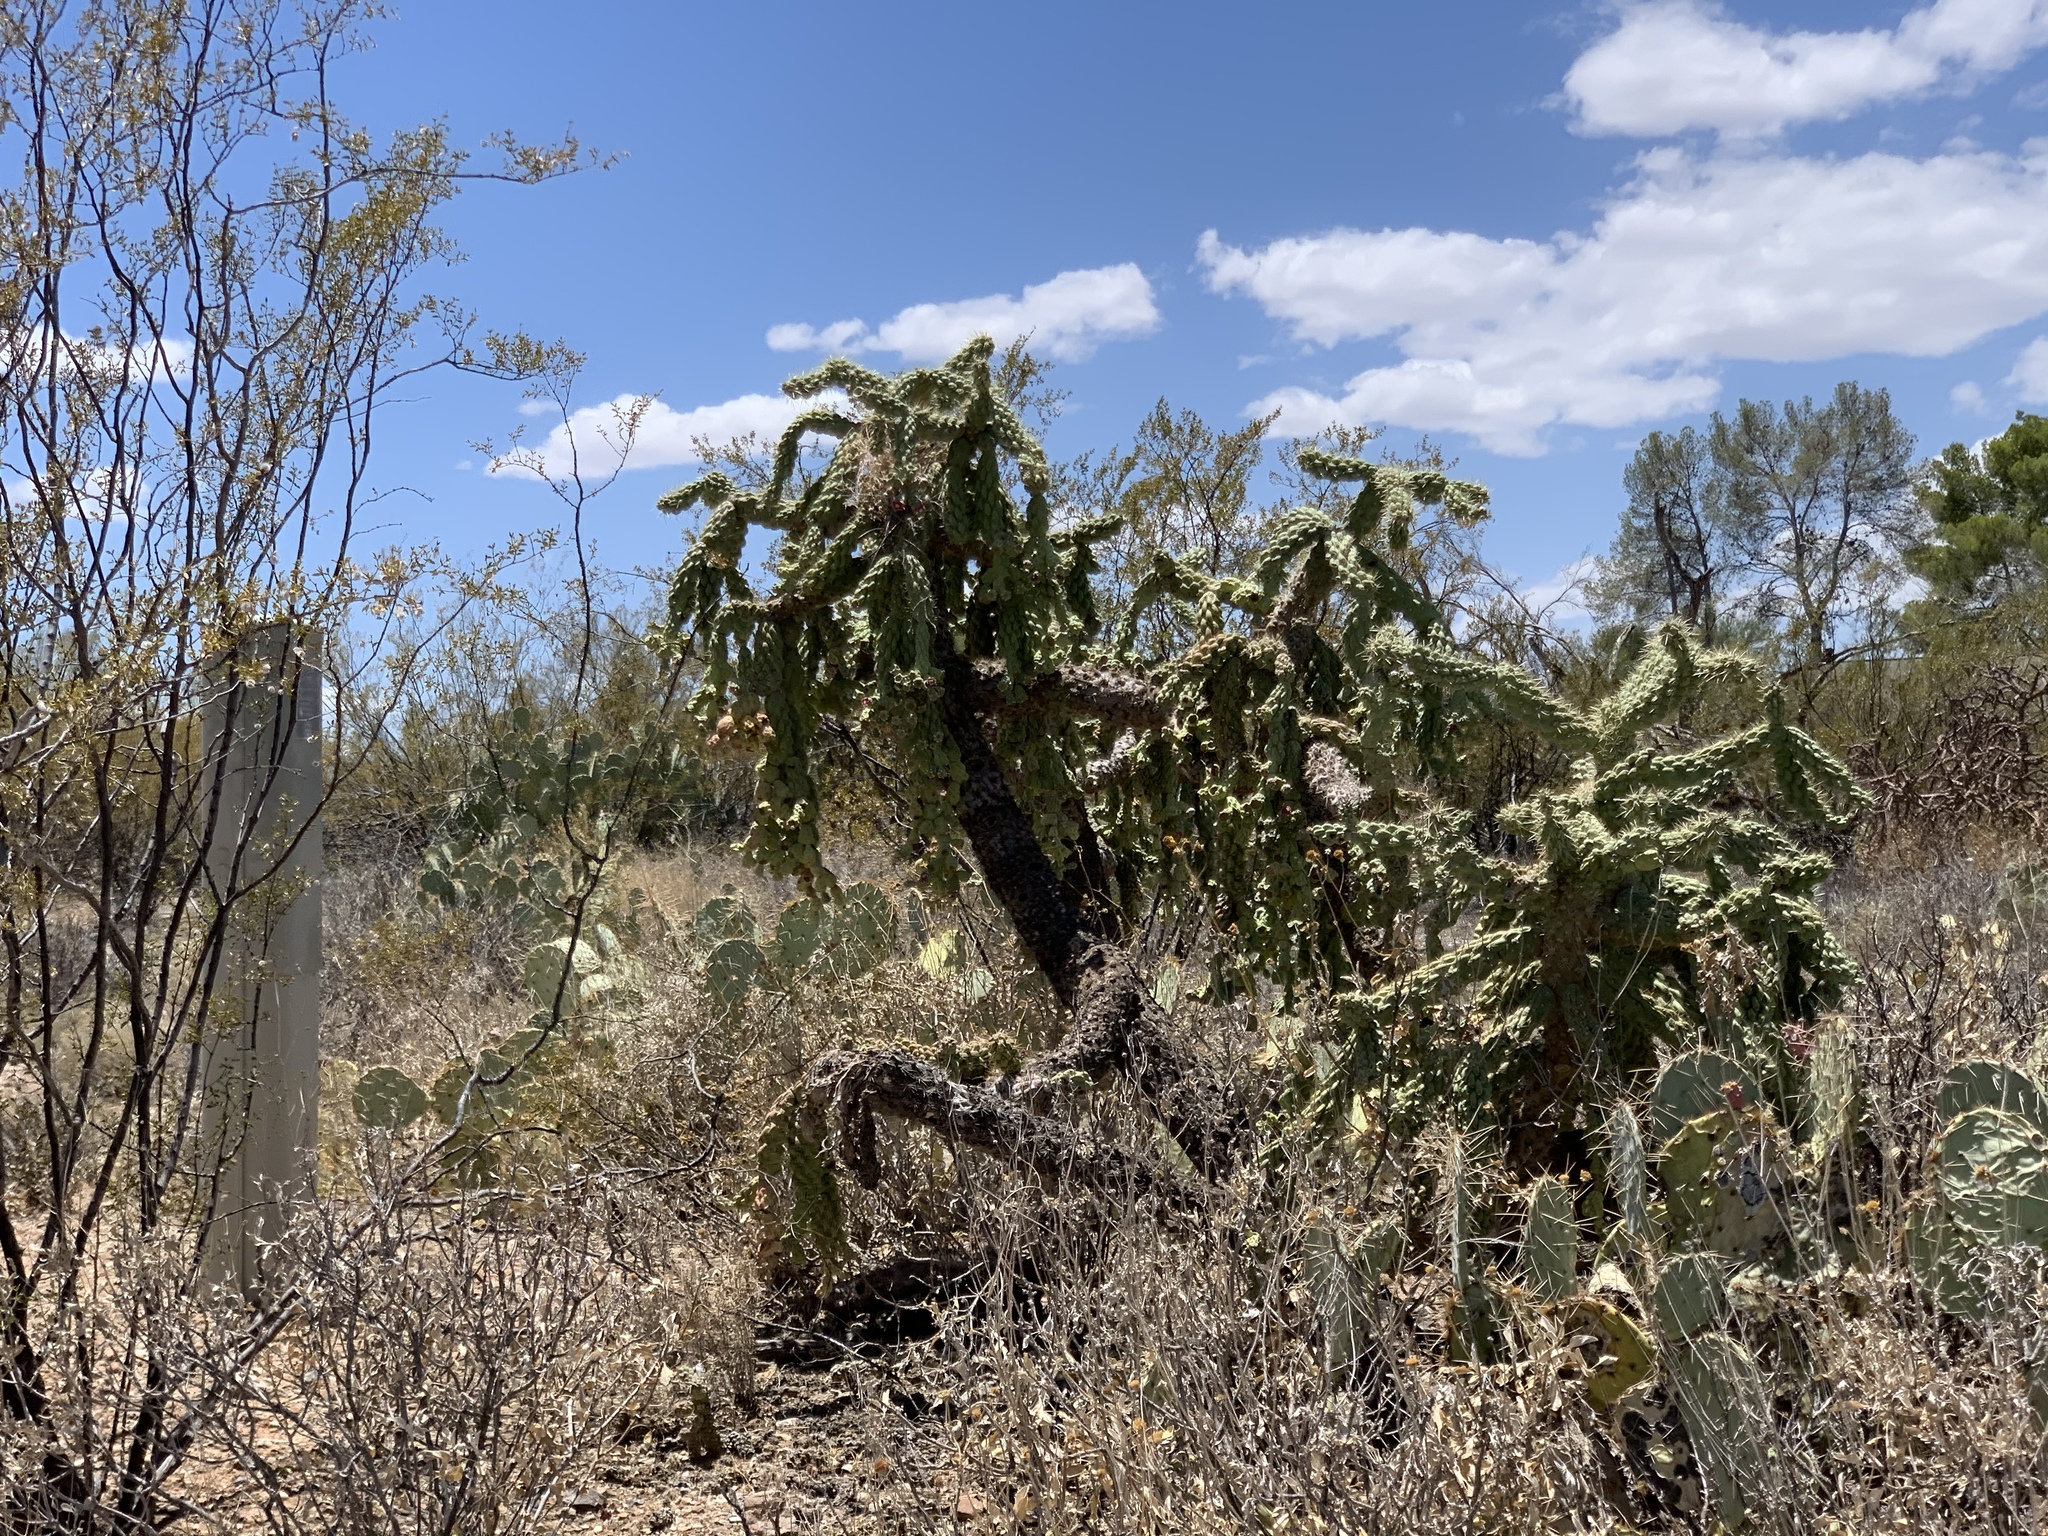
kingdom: Plantae
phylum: Tracheophyta
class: Magnoliopsida
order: Caryophyllales
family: Cactaceae
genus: Cylindropuntia
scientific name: Cylindropuntia fulgida
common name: Jumping cholla
